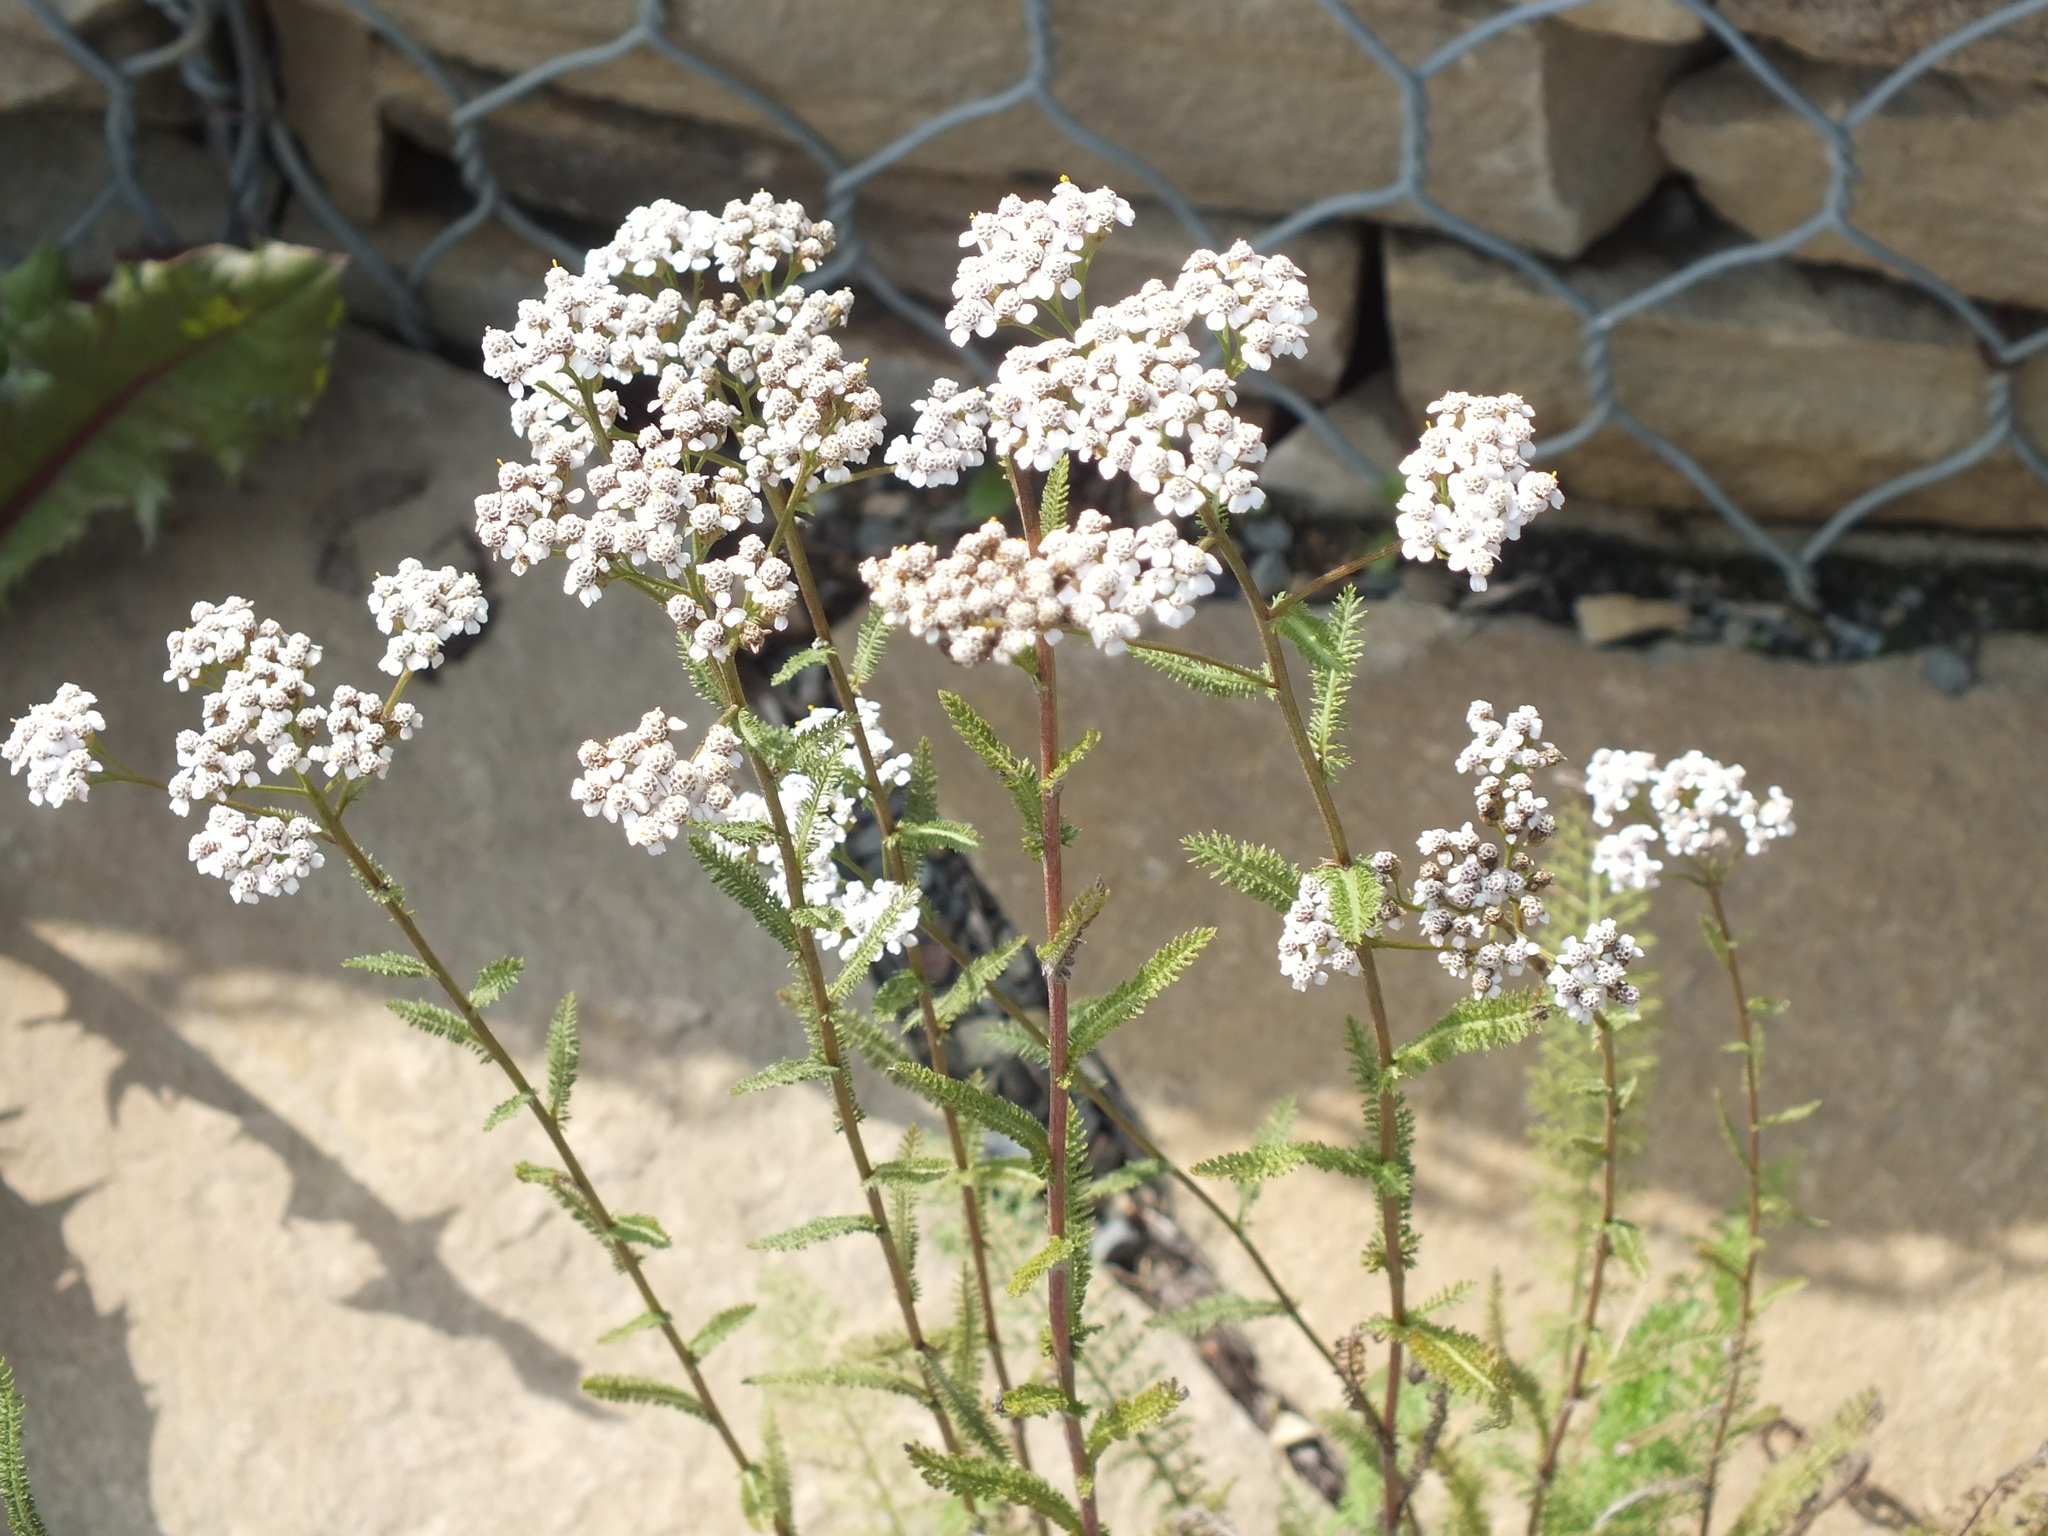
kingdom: Plantae
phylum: Tracheophyta
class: Magnoliopsida
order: Asterales
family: Asteraceae
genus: Achillea
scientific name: Achillea millefolium
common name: Yarrow
